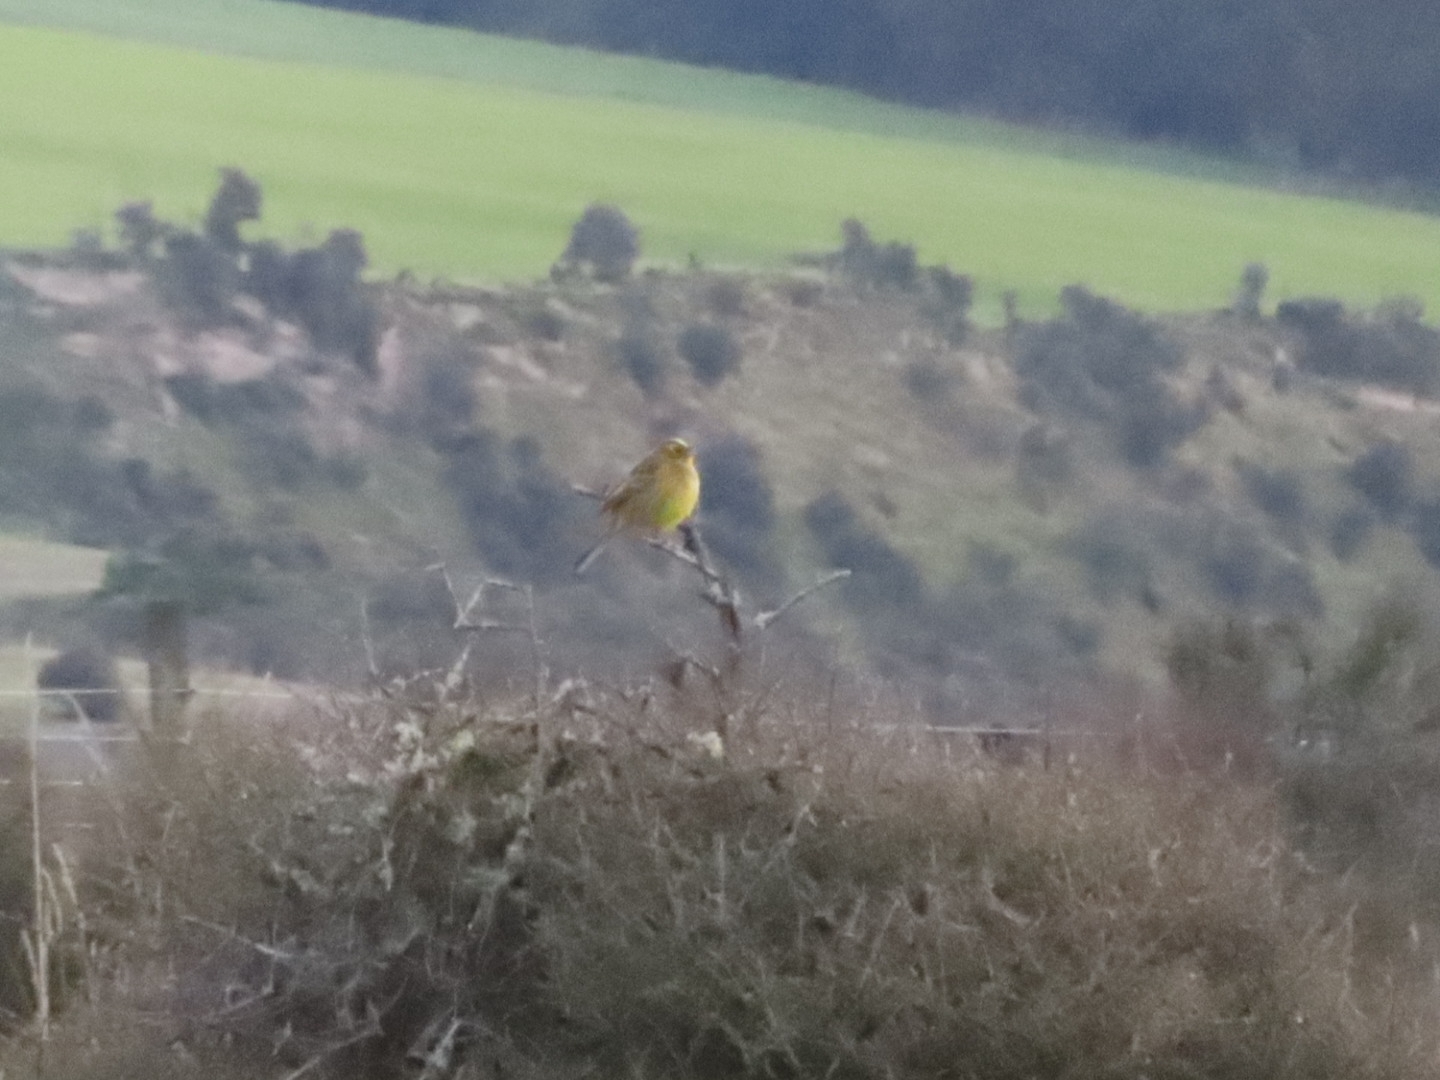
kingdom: Animalia
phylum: Chordata
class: Aves
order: Passeriformes
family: Emberizidae
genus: Emberiza
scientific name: Emberiza citrinella
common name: Yellowhammer
